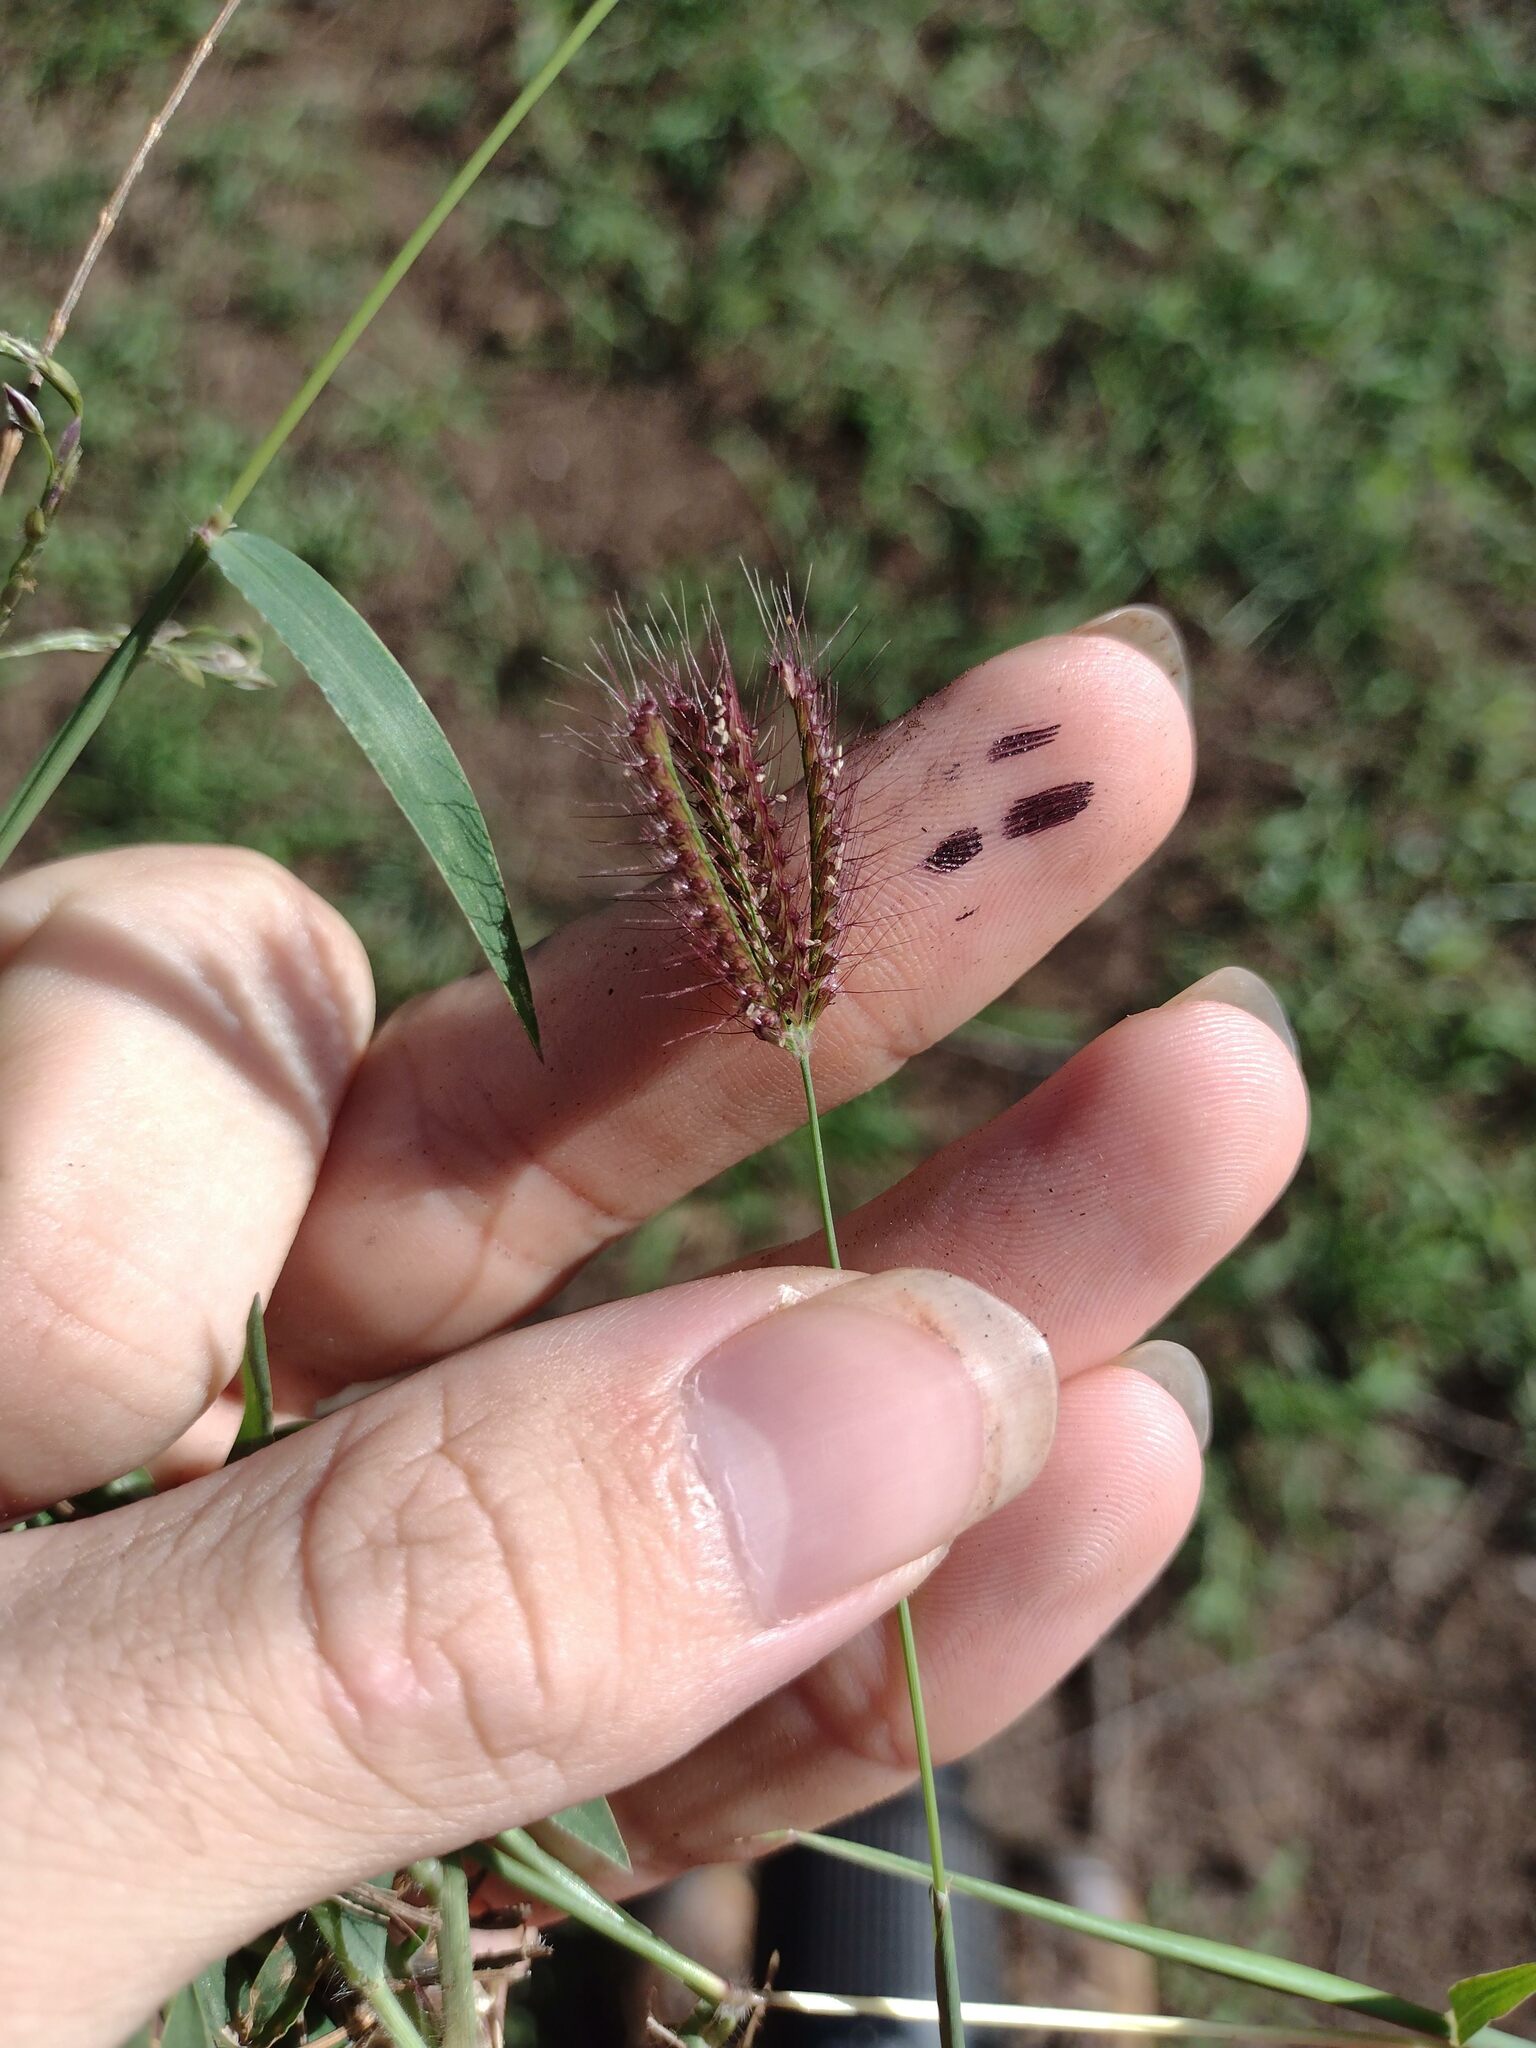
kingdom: Plantae
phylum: Tracheophyta
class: Liliopsida
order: Poales
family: Poaceae
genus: Chloris
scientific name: Chloris barbata
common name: Swollen fingergrass
